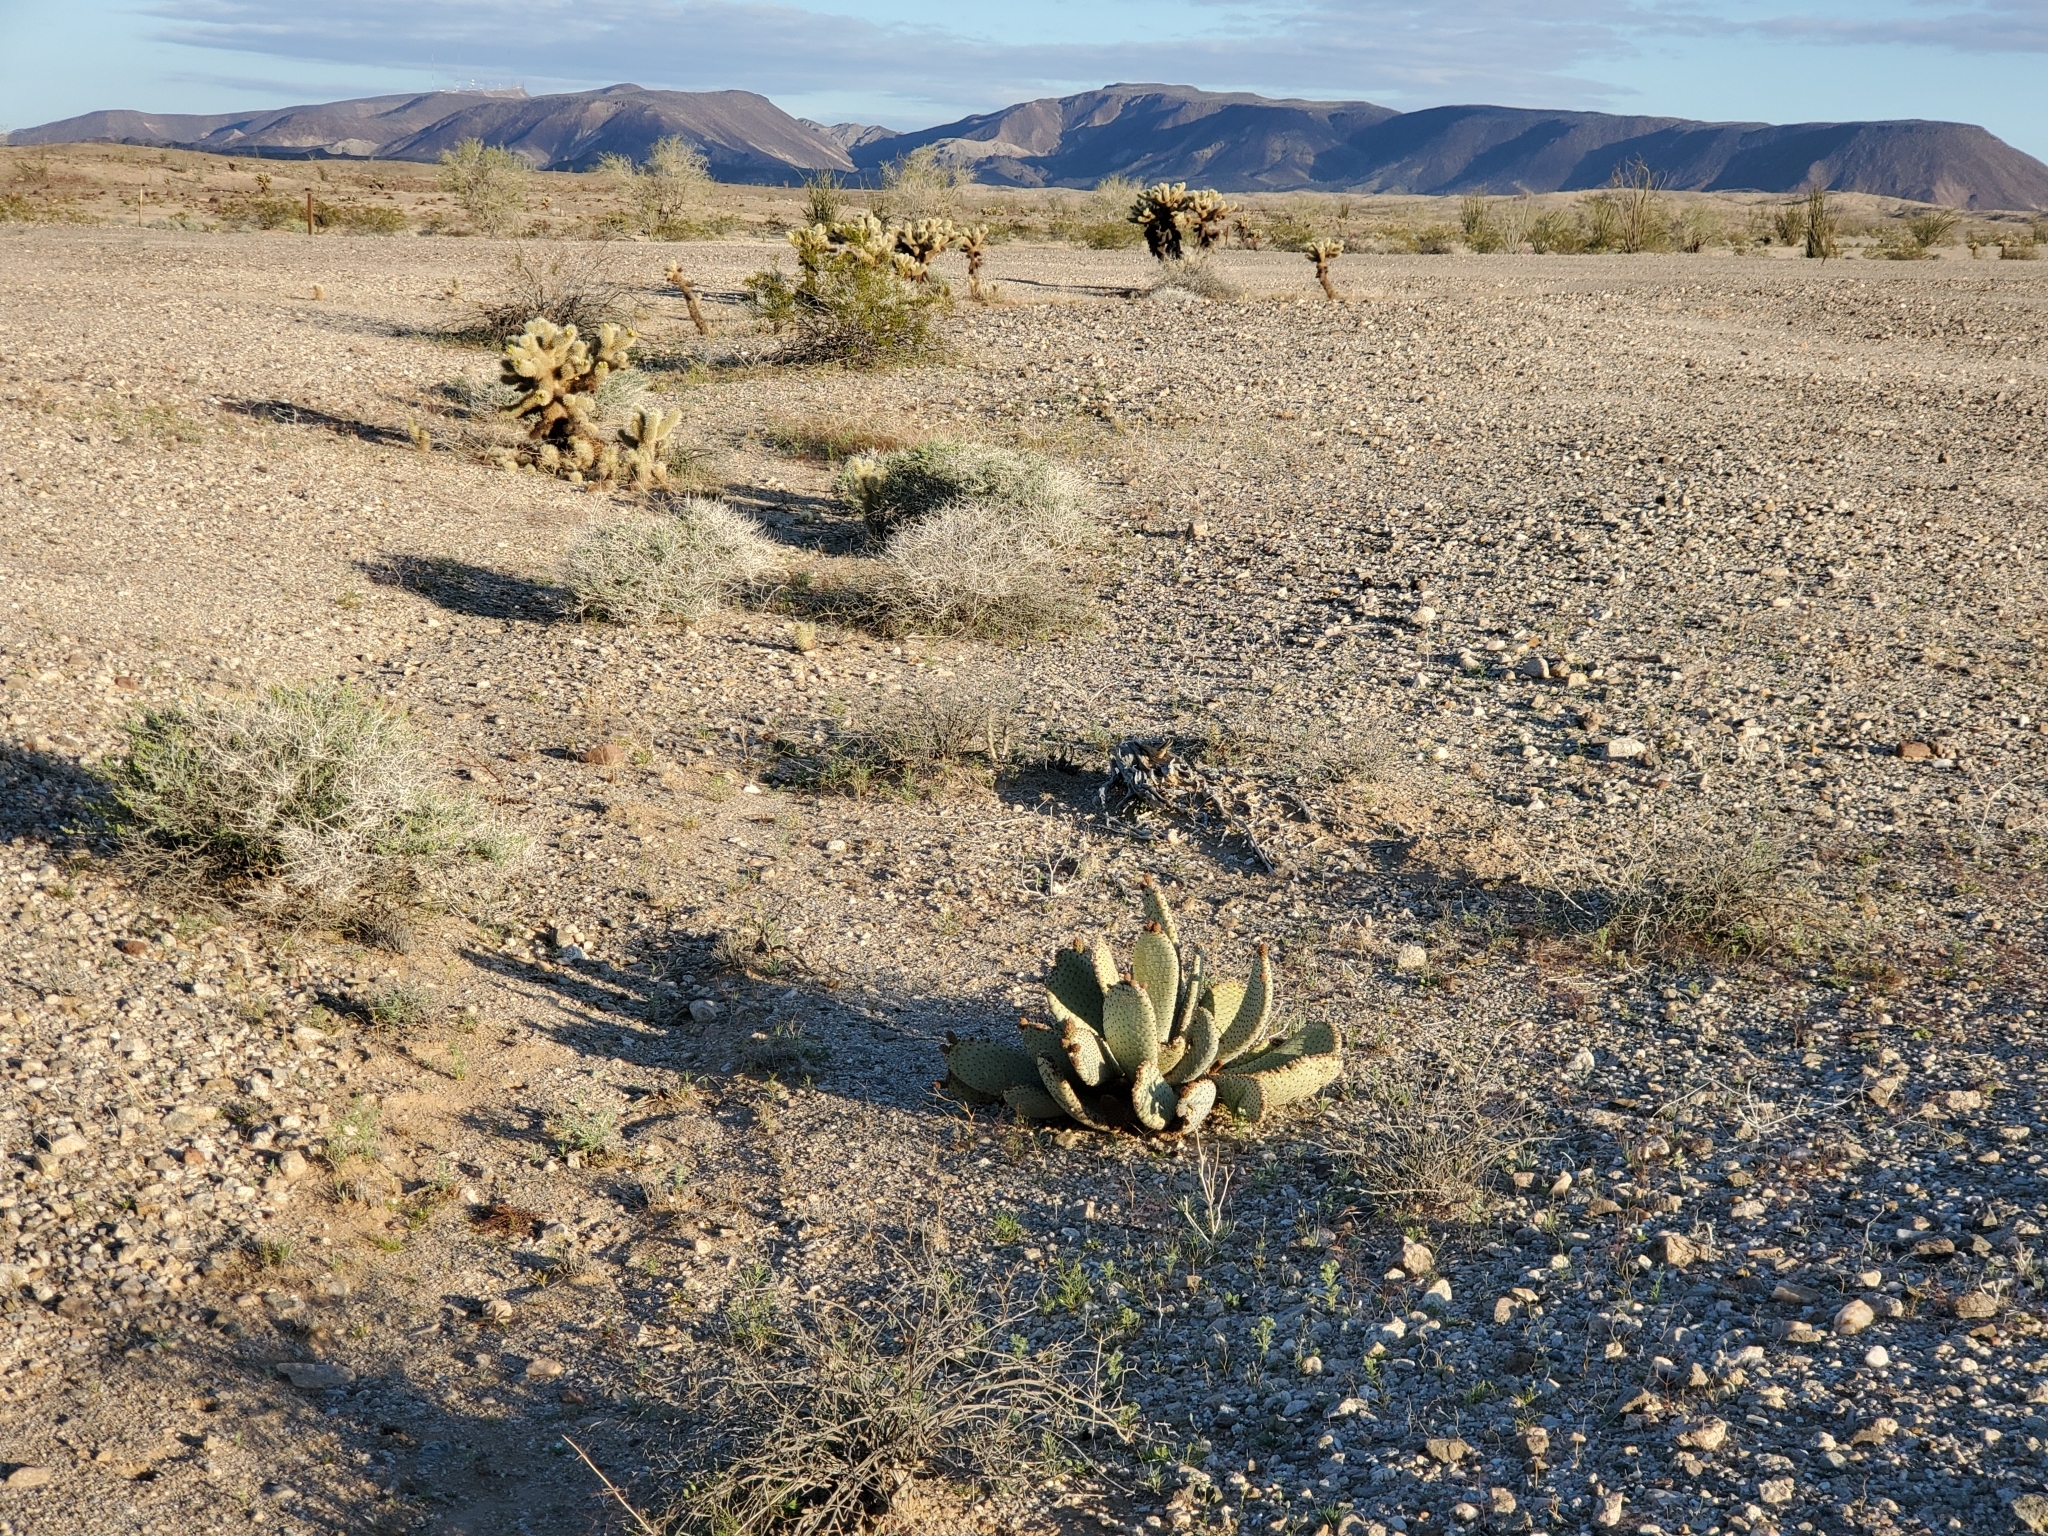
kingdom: Plantae
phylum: Tracheophyta
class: Magnoliopsida
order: Caryophyllales
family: Cactaceae
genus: Opuntia
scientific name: Opuntia basilaris
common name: Beavertail prickly-pear
